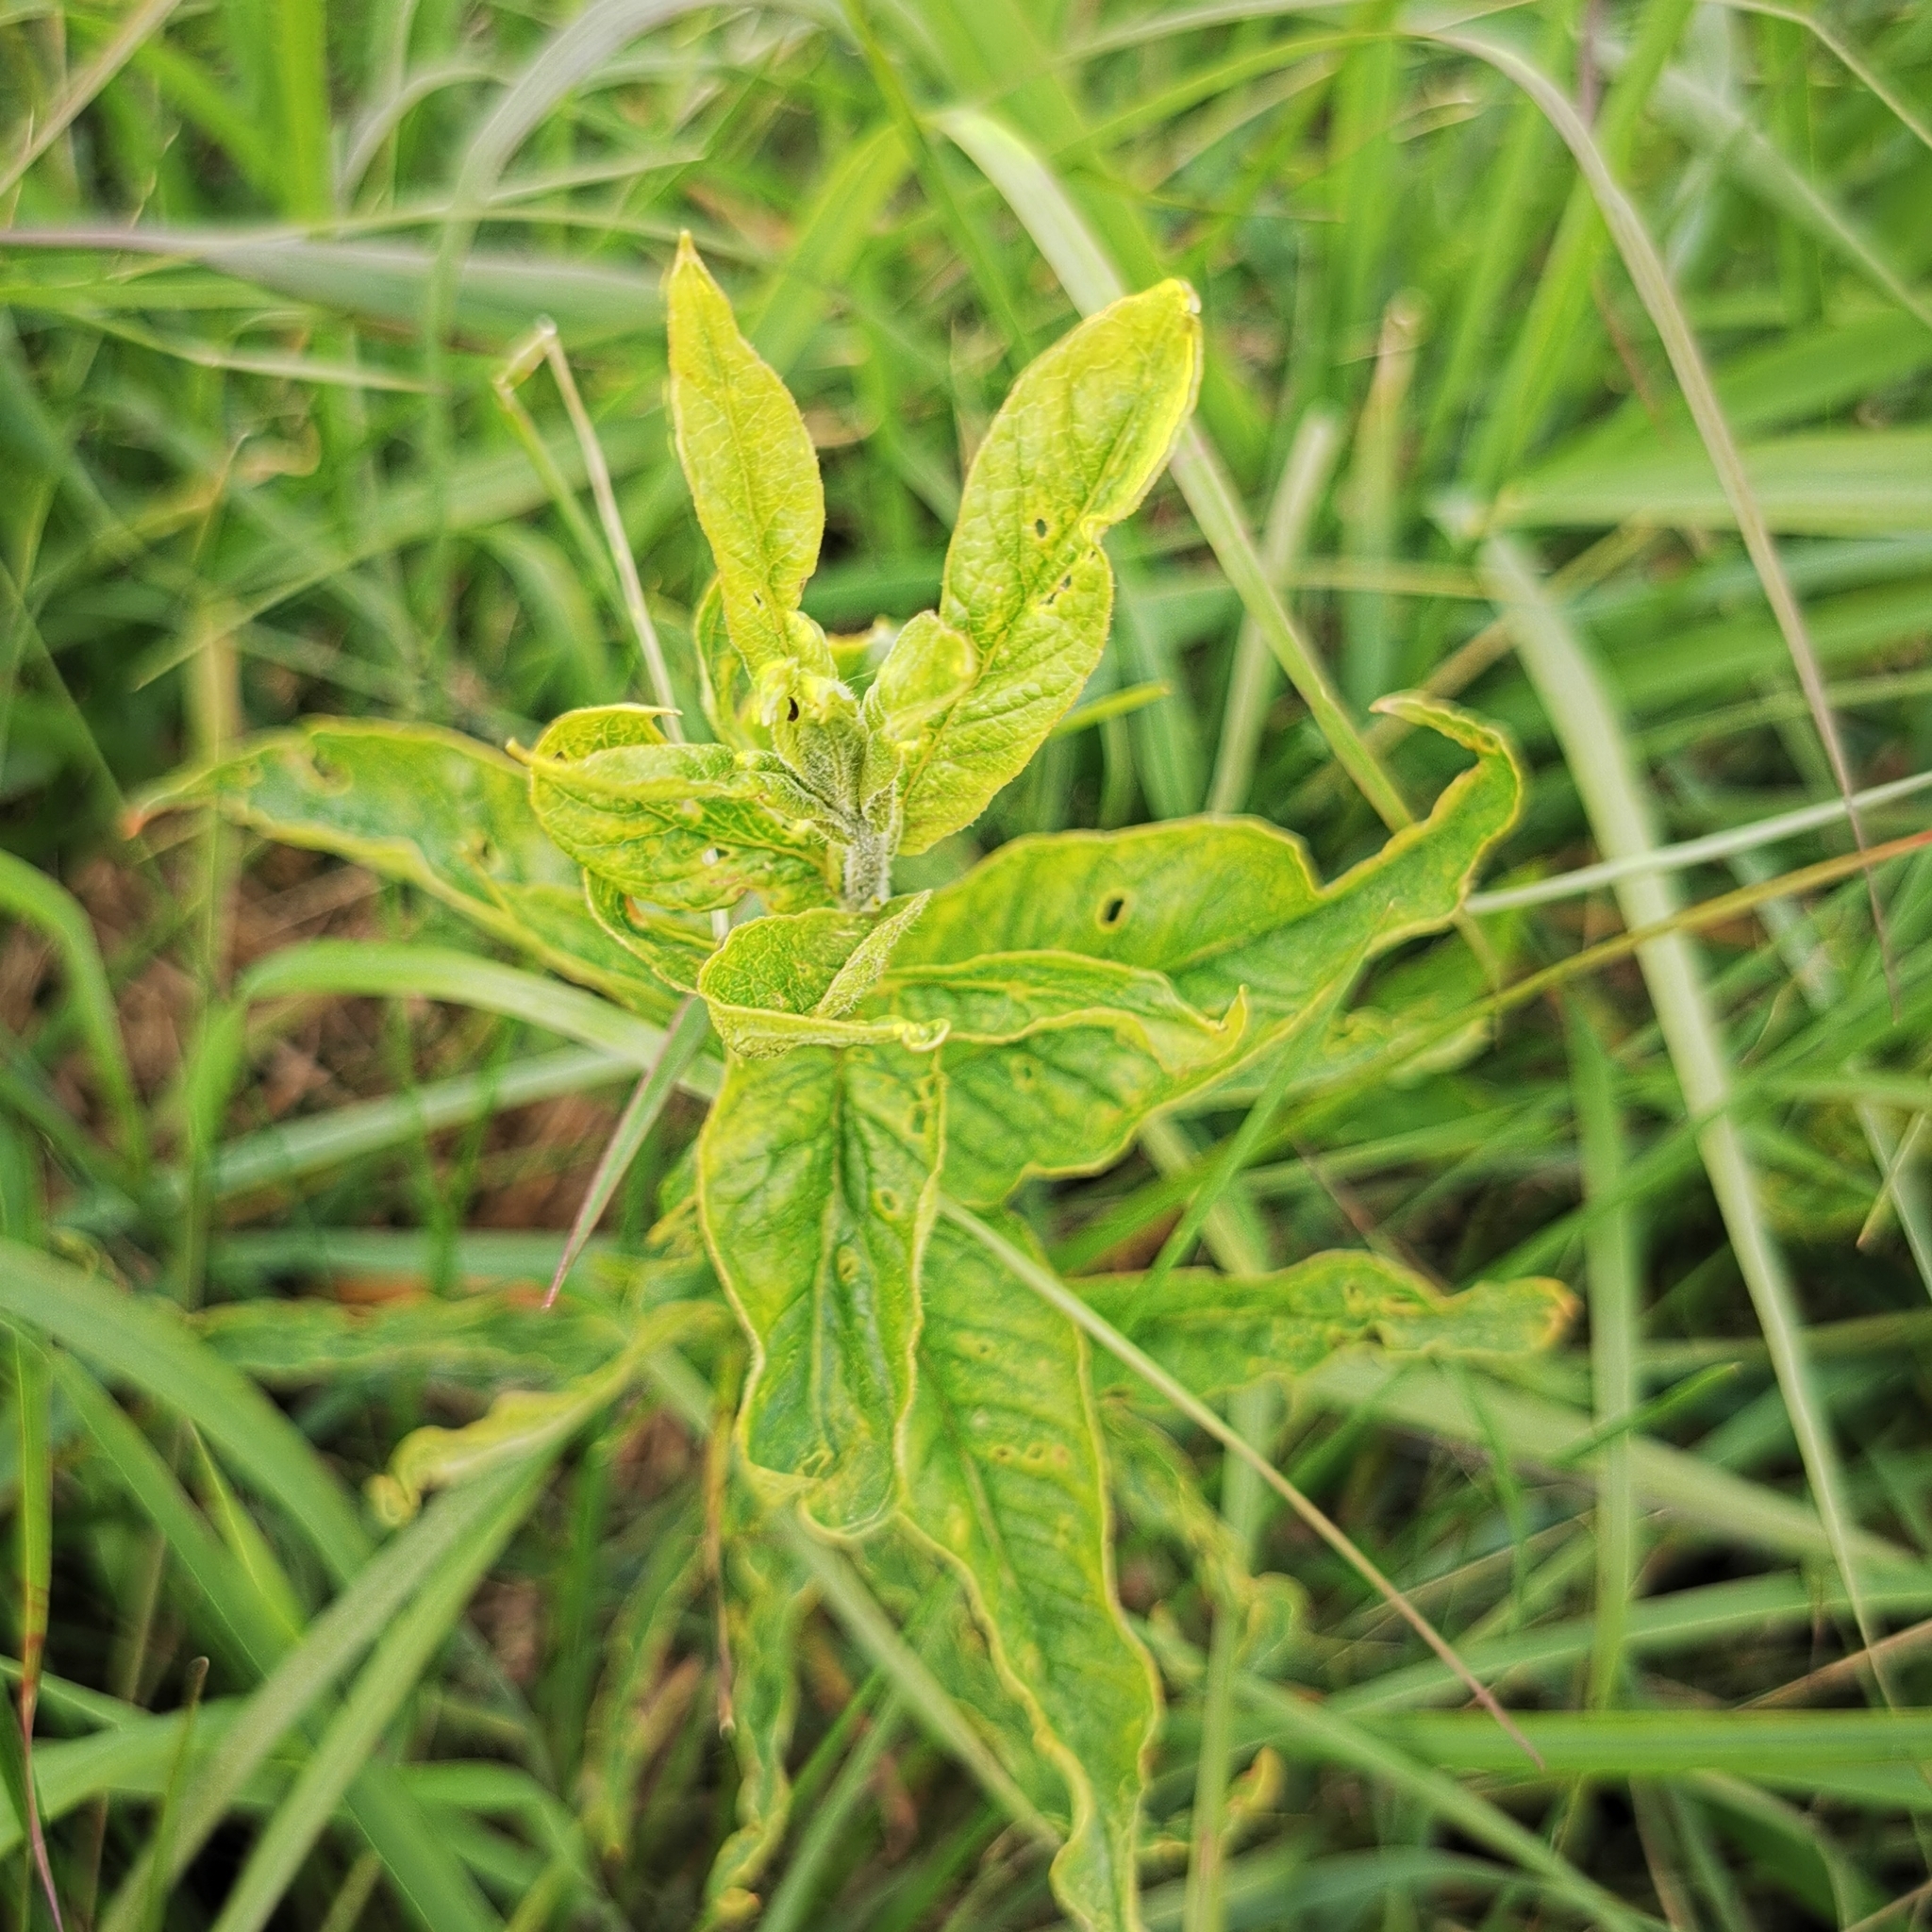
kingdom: Plantae
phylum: Tracheophyta
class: Magnoliopsida
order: Ericales
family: Primulaceae
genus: Lysimachia
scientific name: Lysimachia vulgaris
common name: Yellow loosestrife
